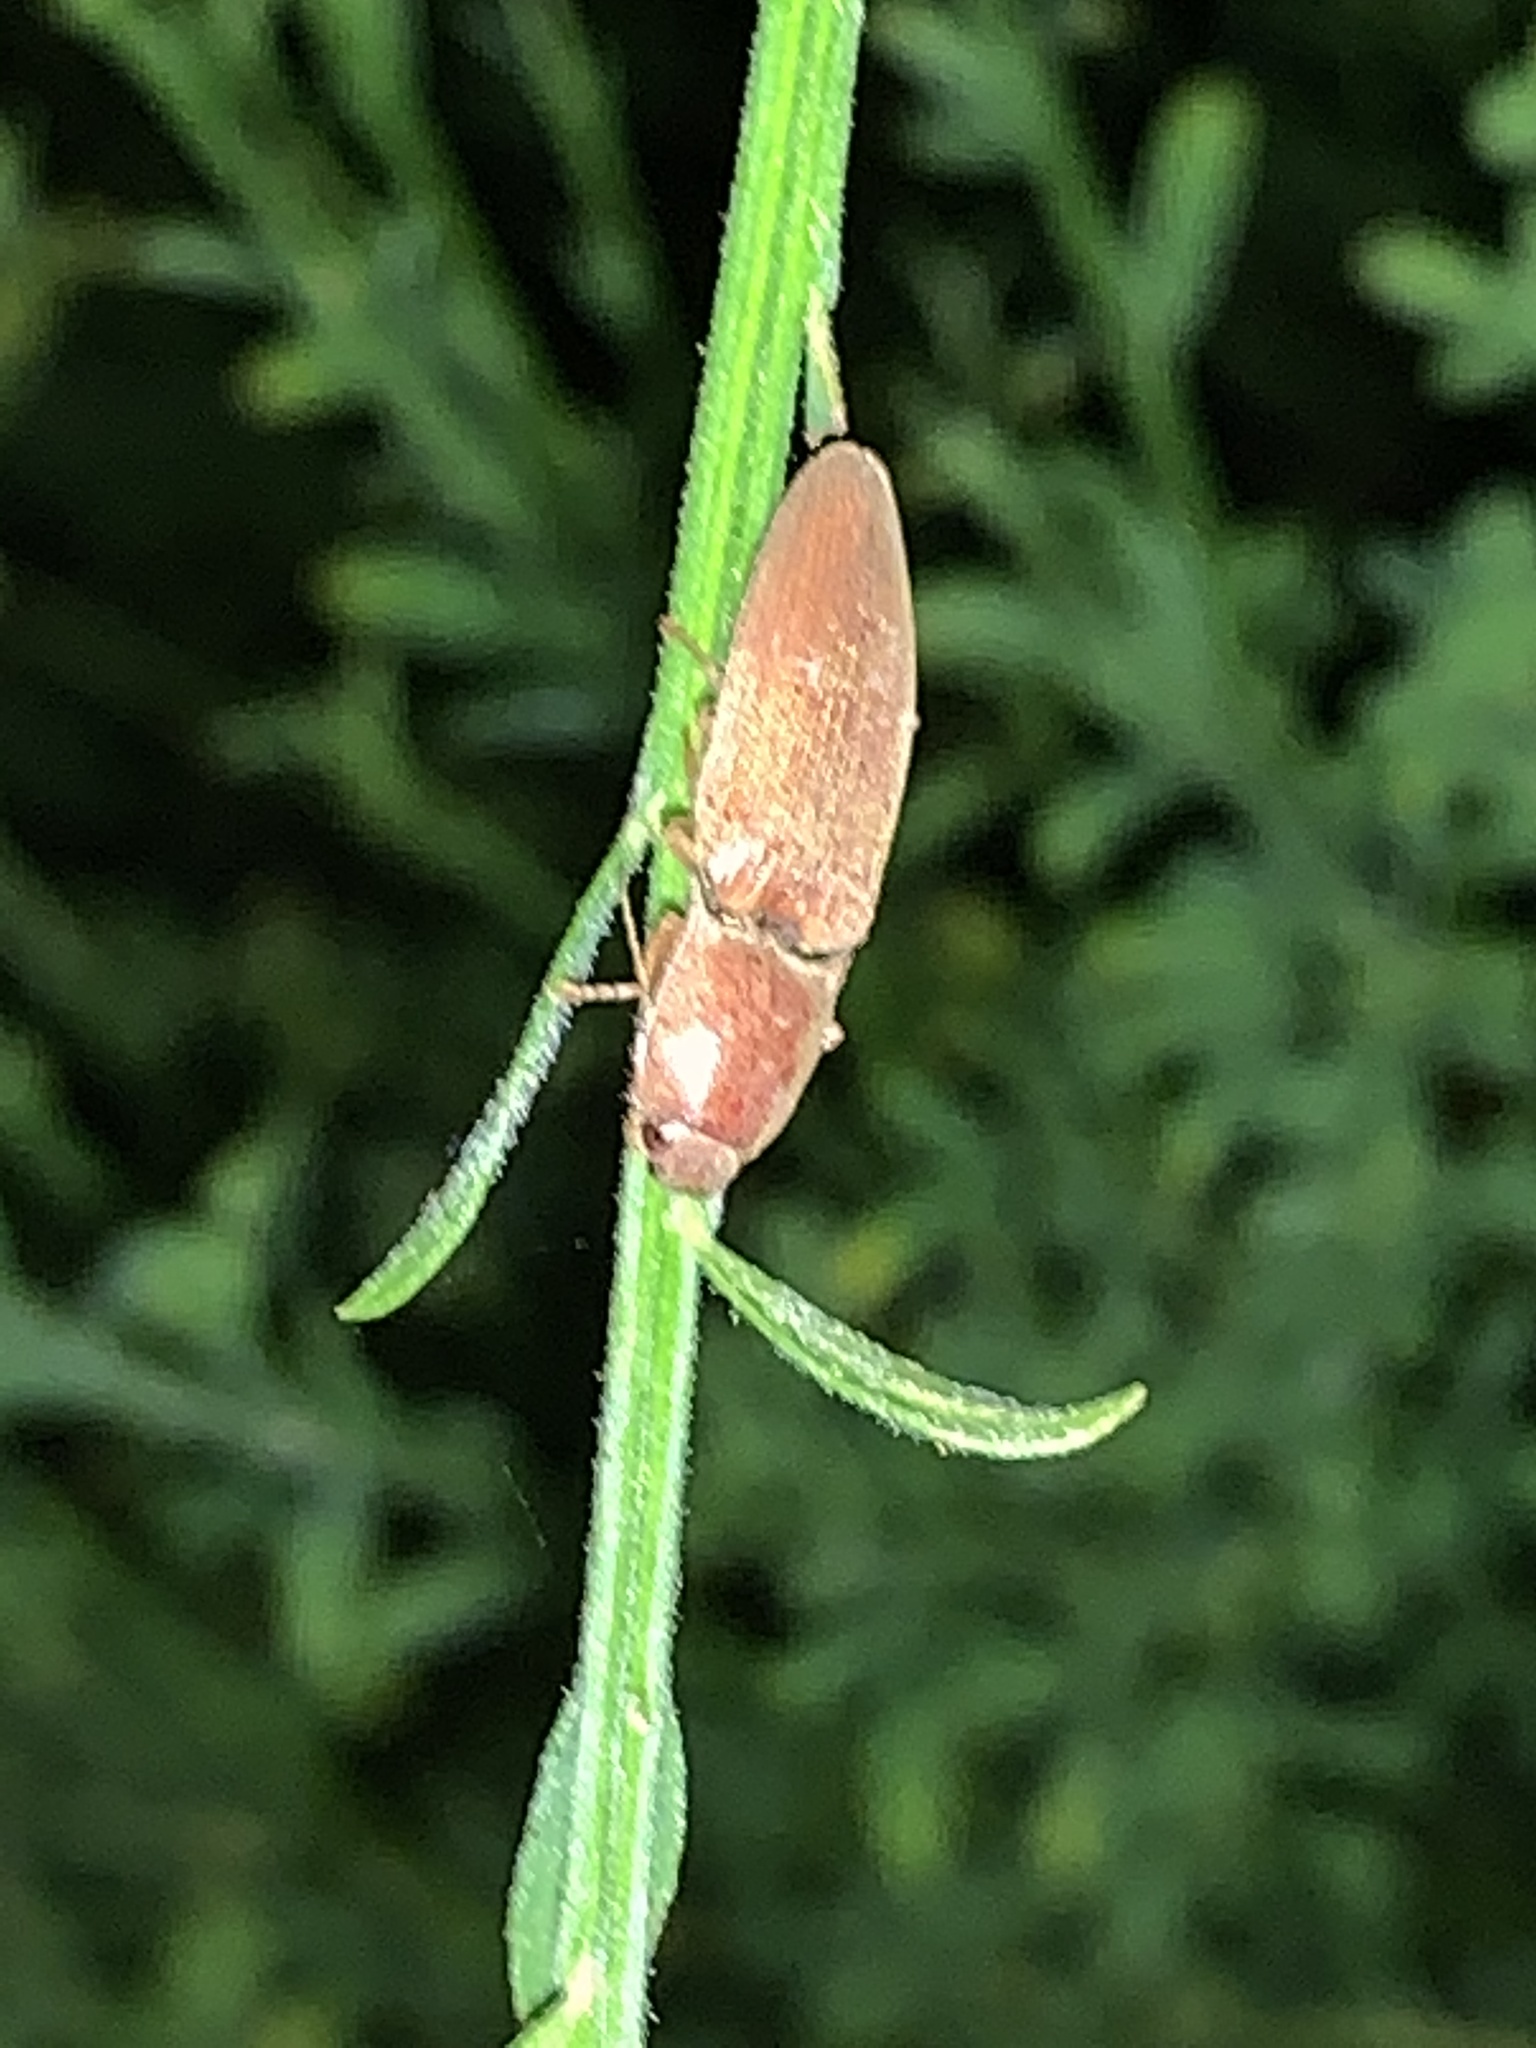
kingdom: Animalia
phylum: Arthropoda
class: Insecta
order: Coleoptera
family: Elateridae
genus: Monocrepidius
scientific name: Monocrepidius lividus
